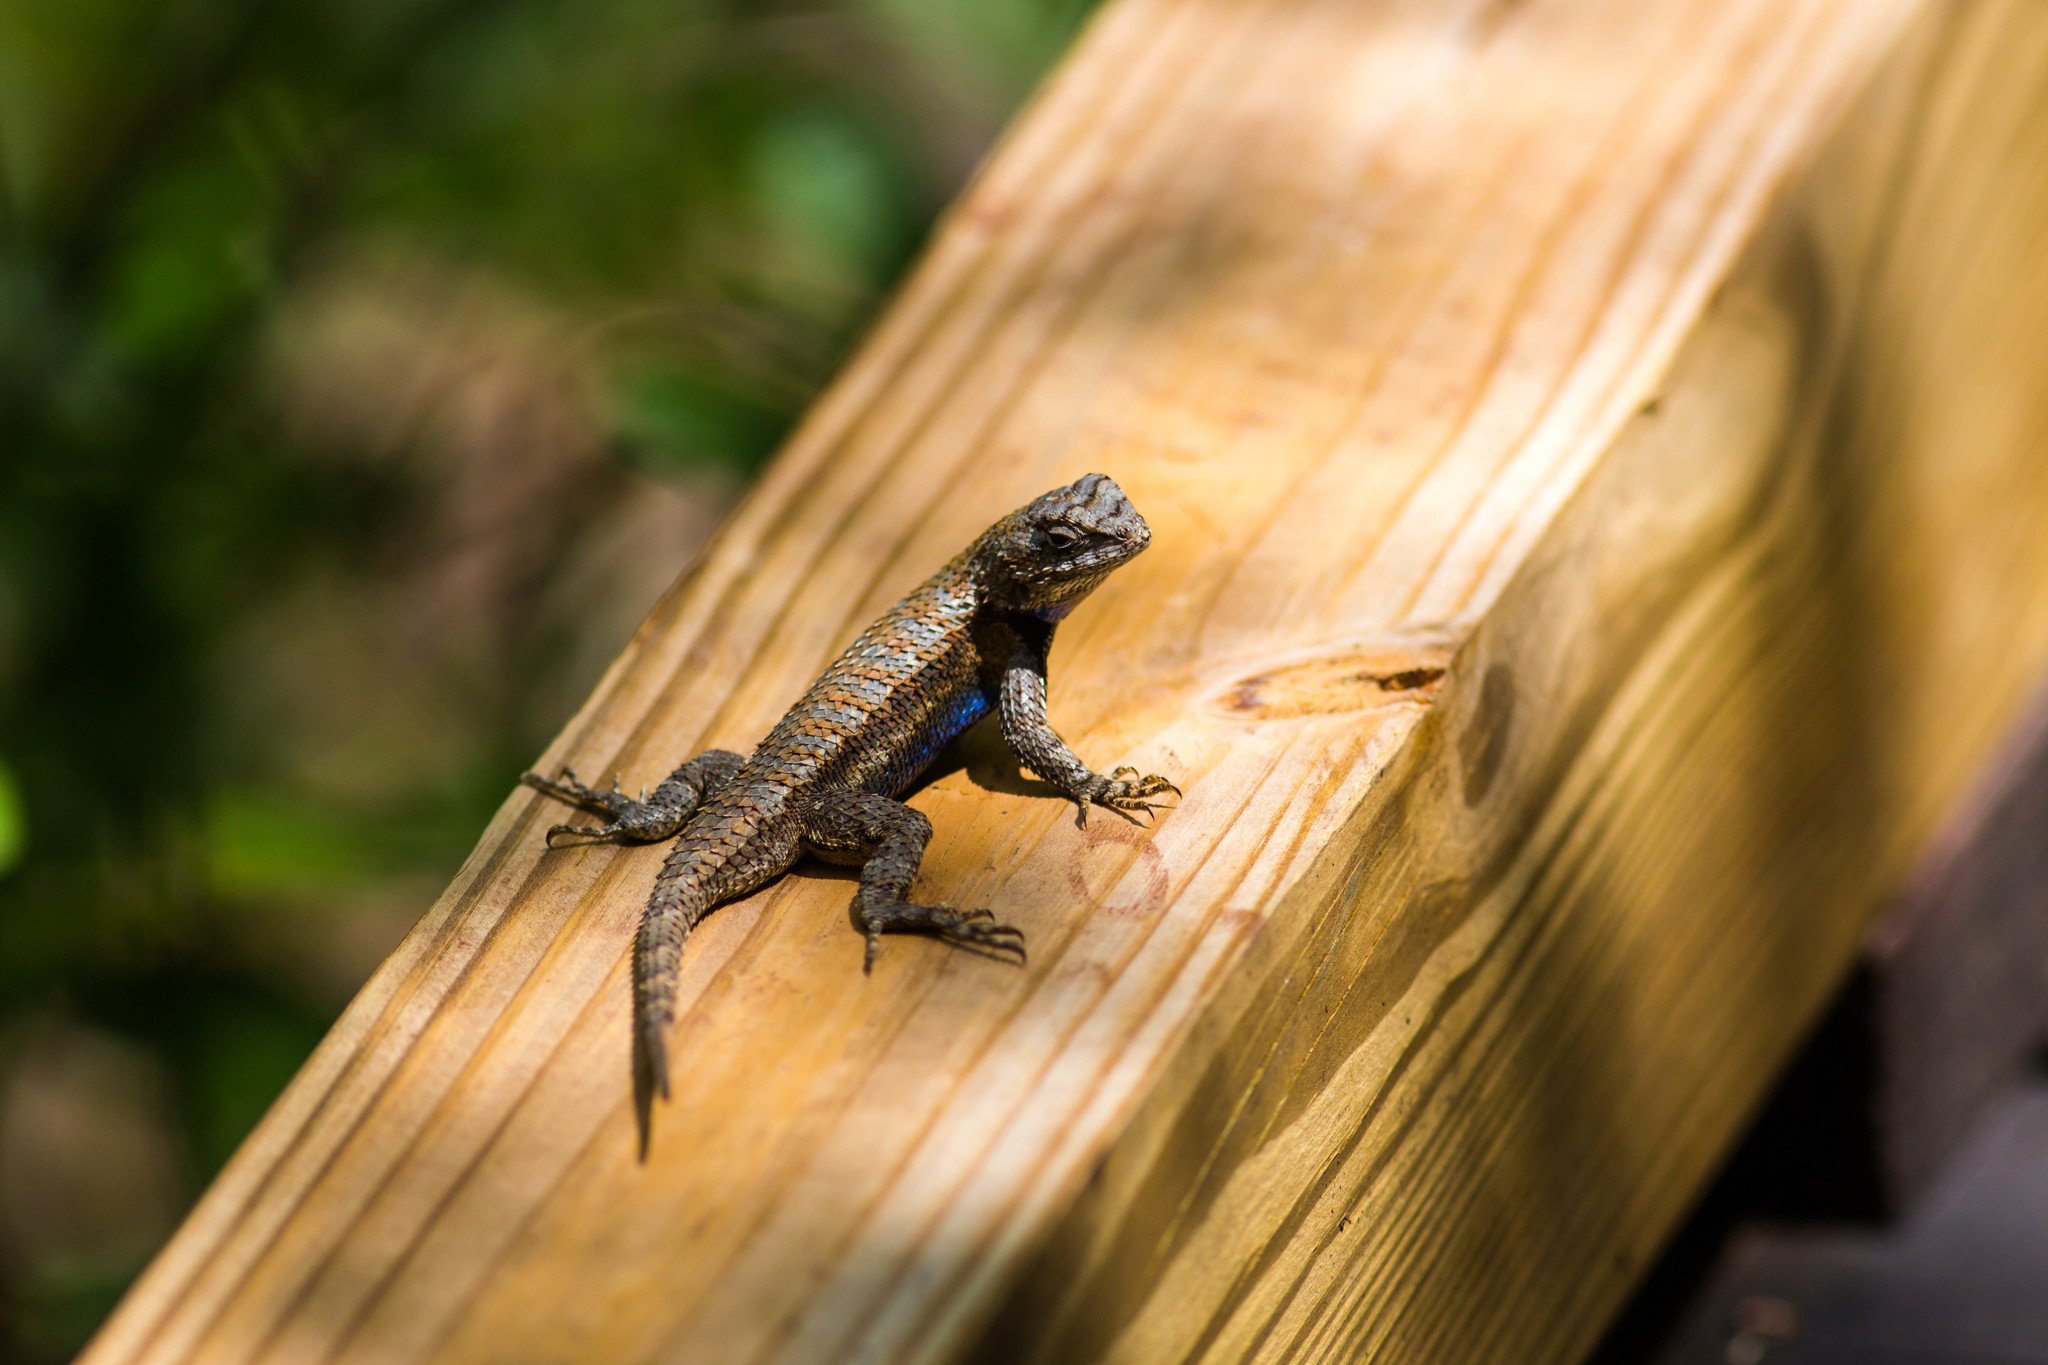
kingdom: Animalia
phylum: Chordata
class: Squamata
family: Phrynosomatidae
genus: Sceloporus
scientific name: Sceloporus undulatus
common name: Eastern fence lizard
